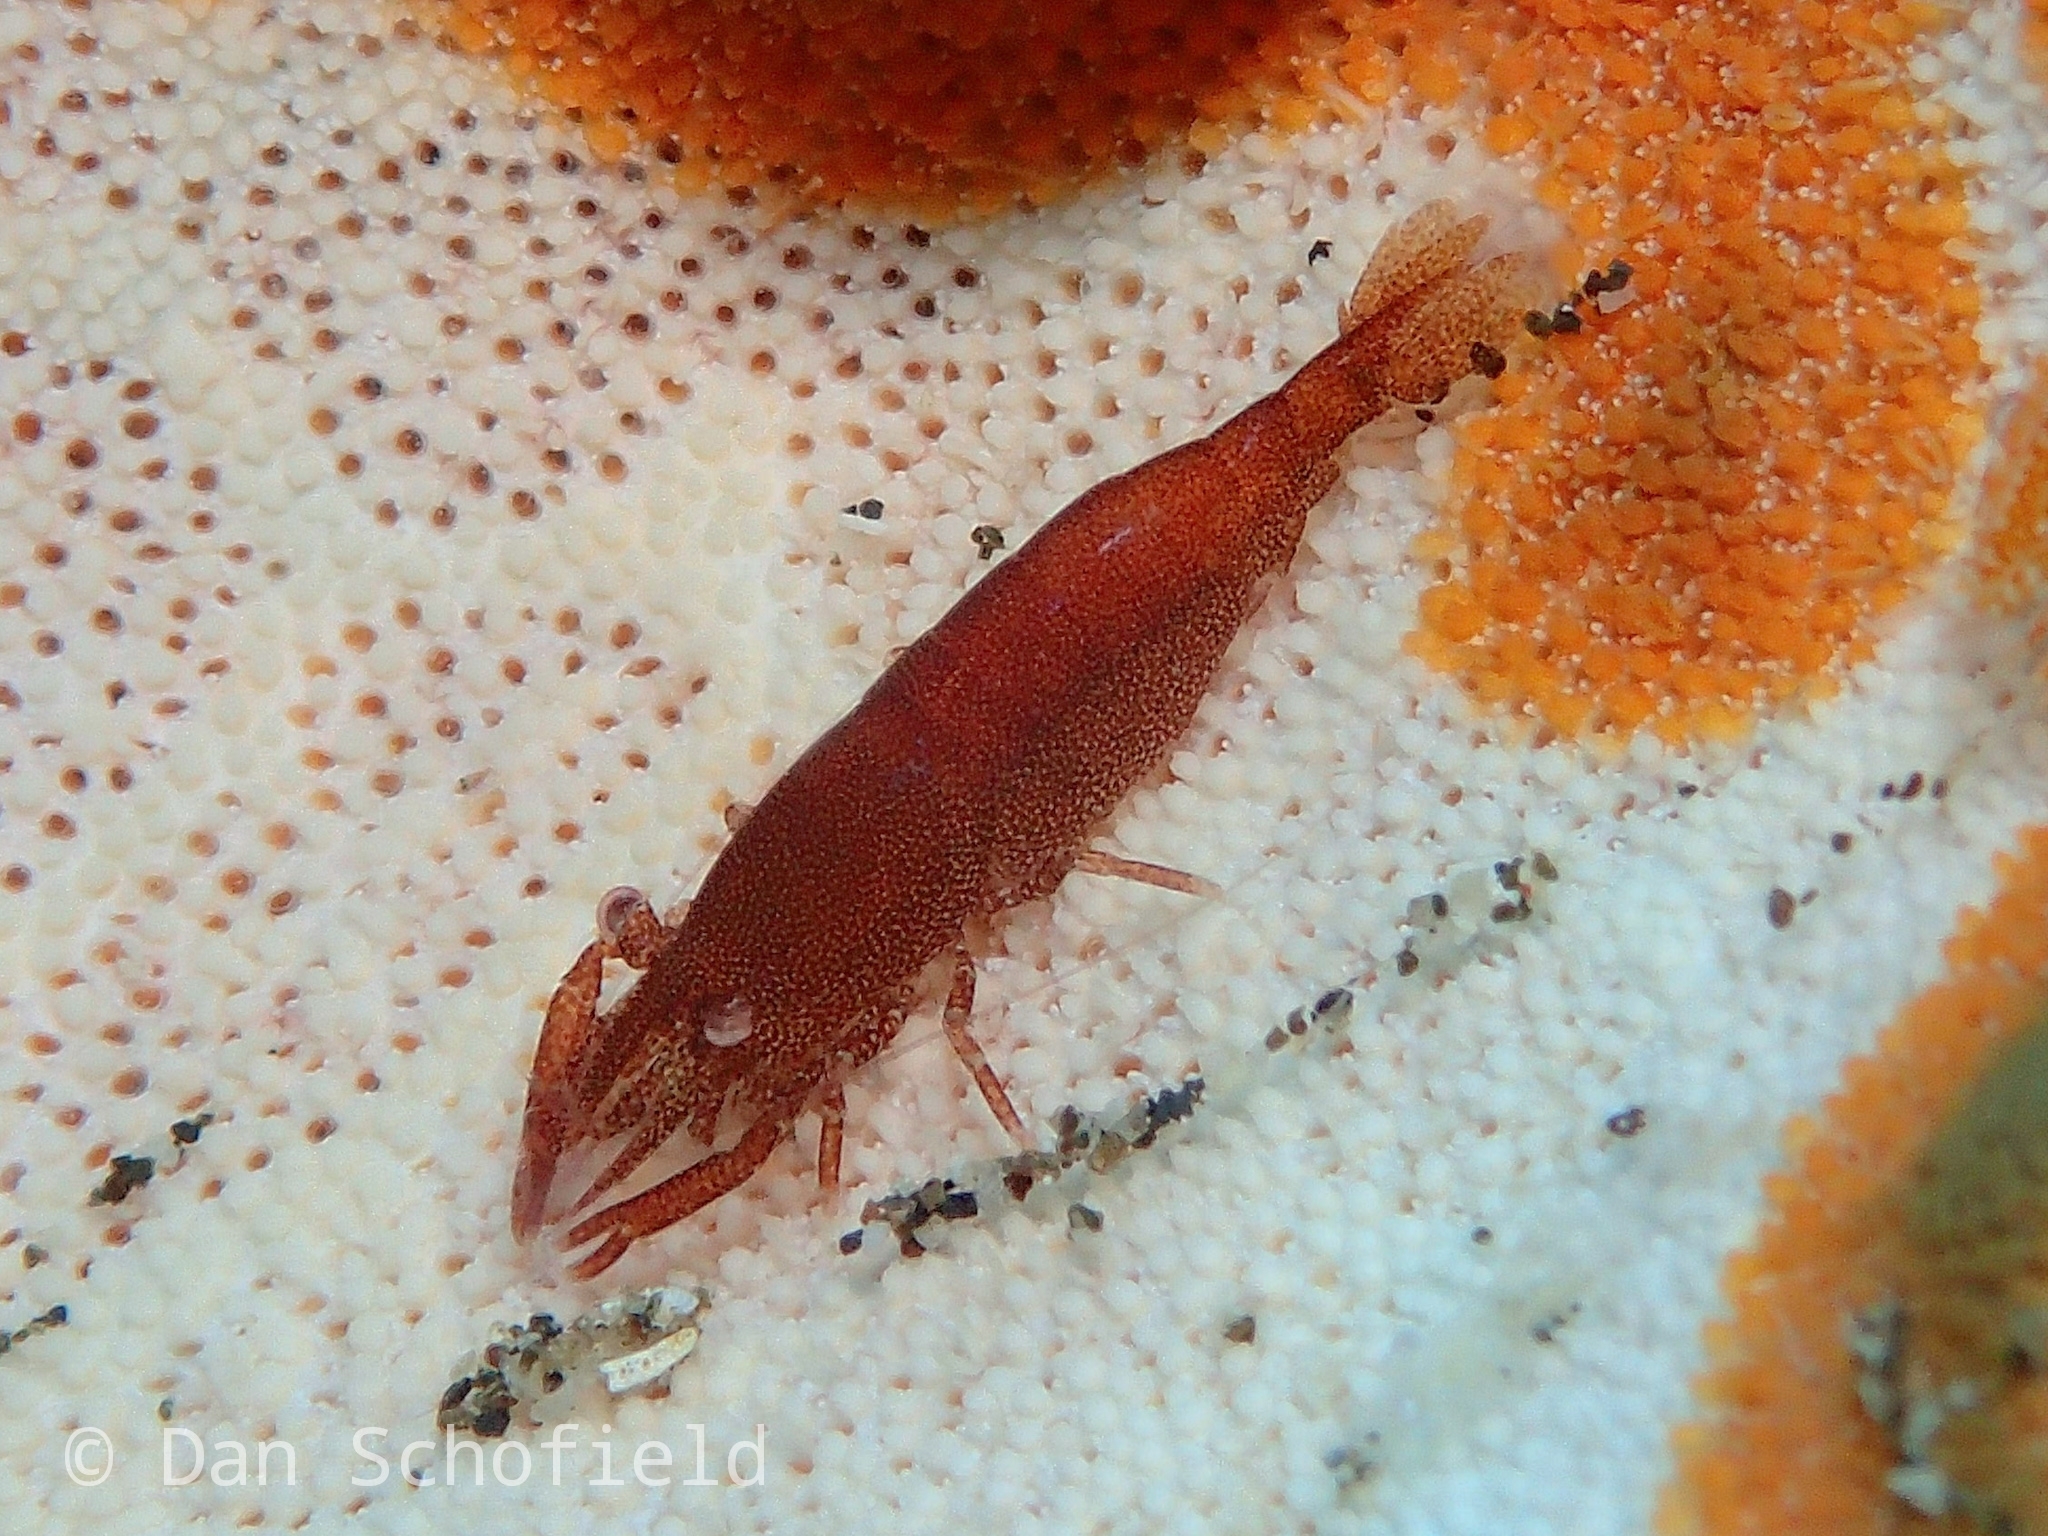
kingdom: Animalia
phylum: Arthropoda
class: Malacostraca
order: Decapoda
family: Palaemonidae
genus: Zenopontonia
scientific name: Zenopontonia noverca
